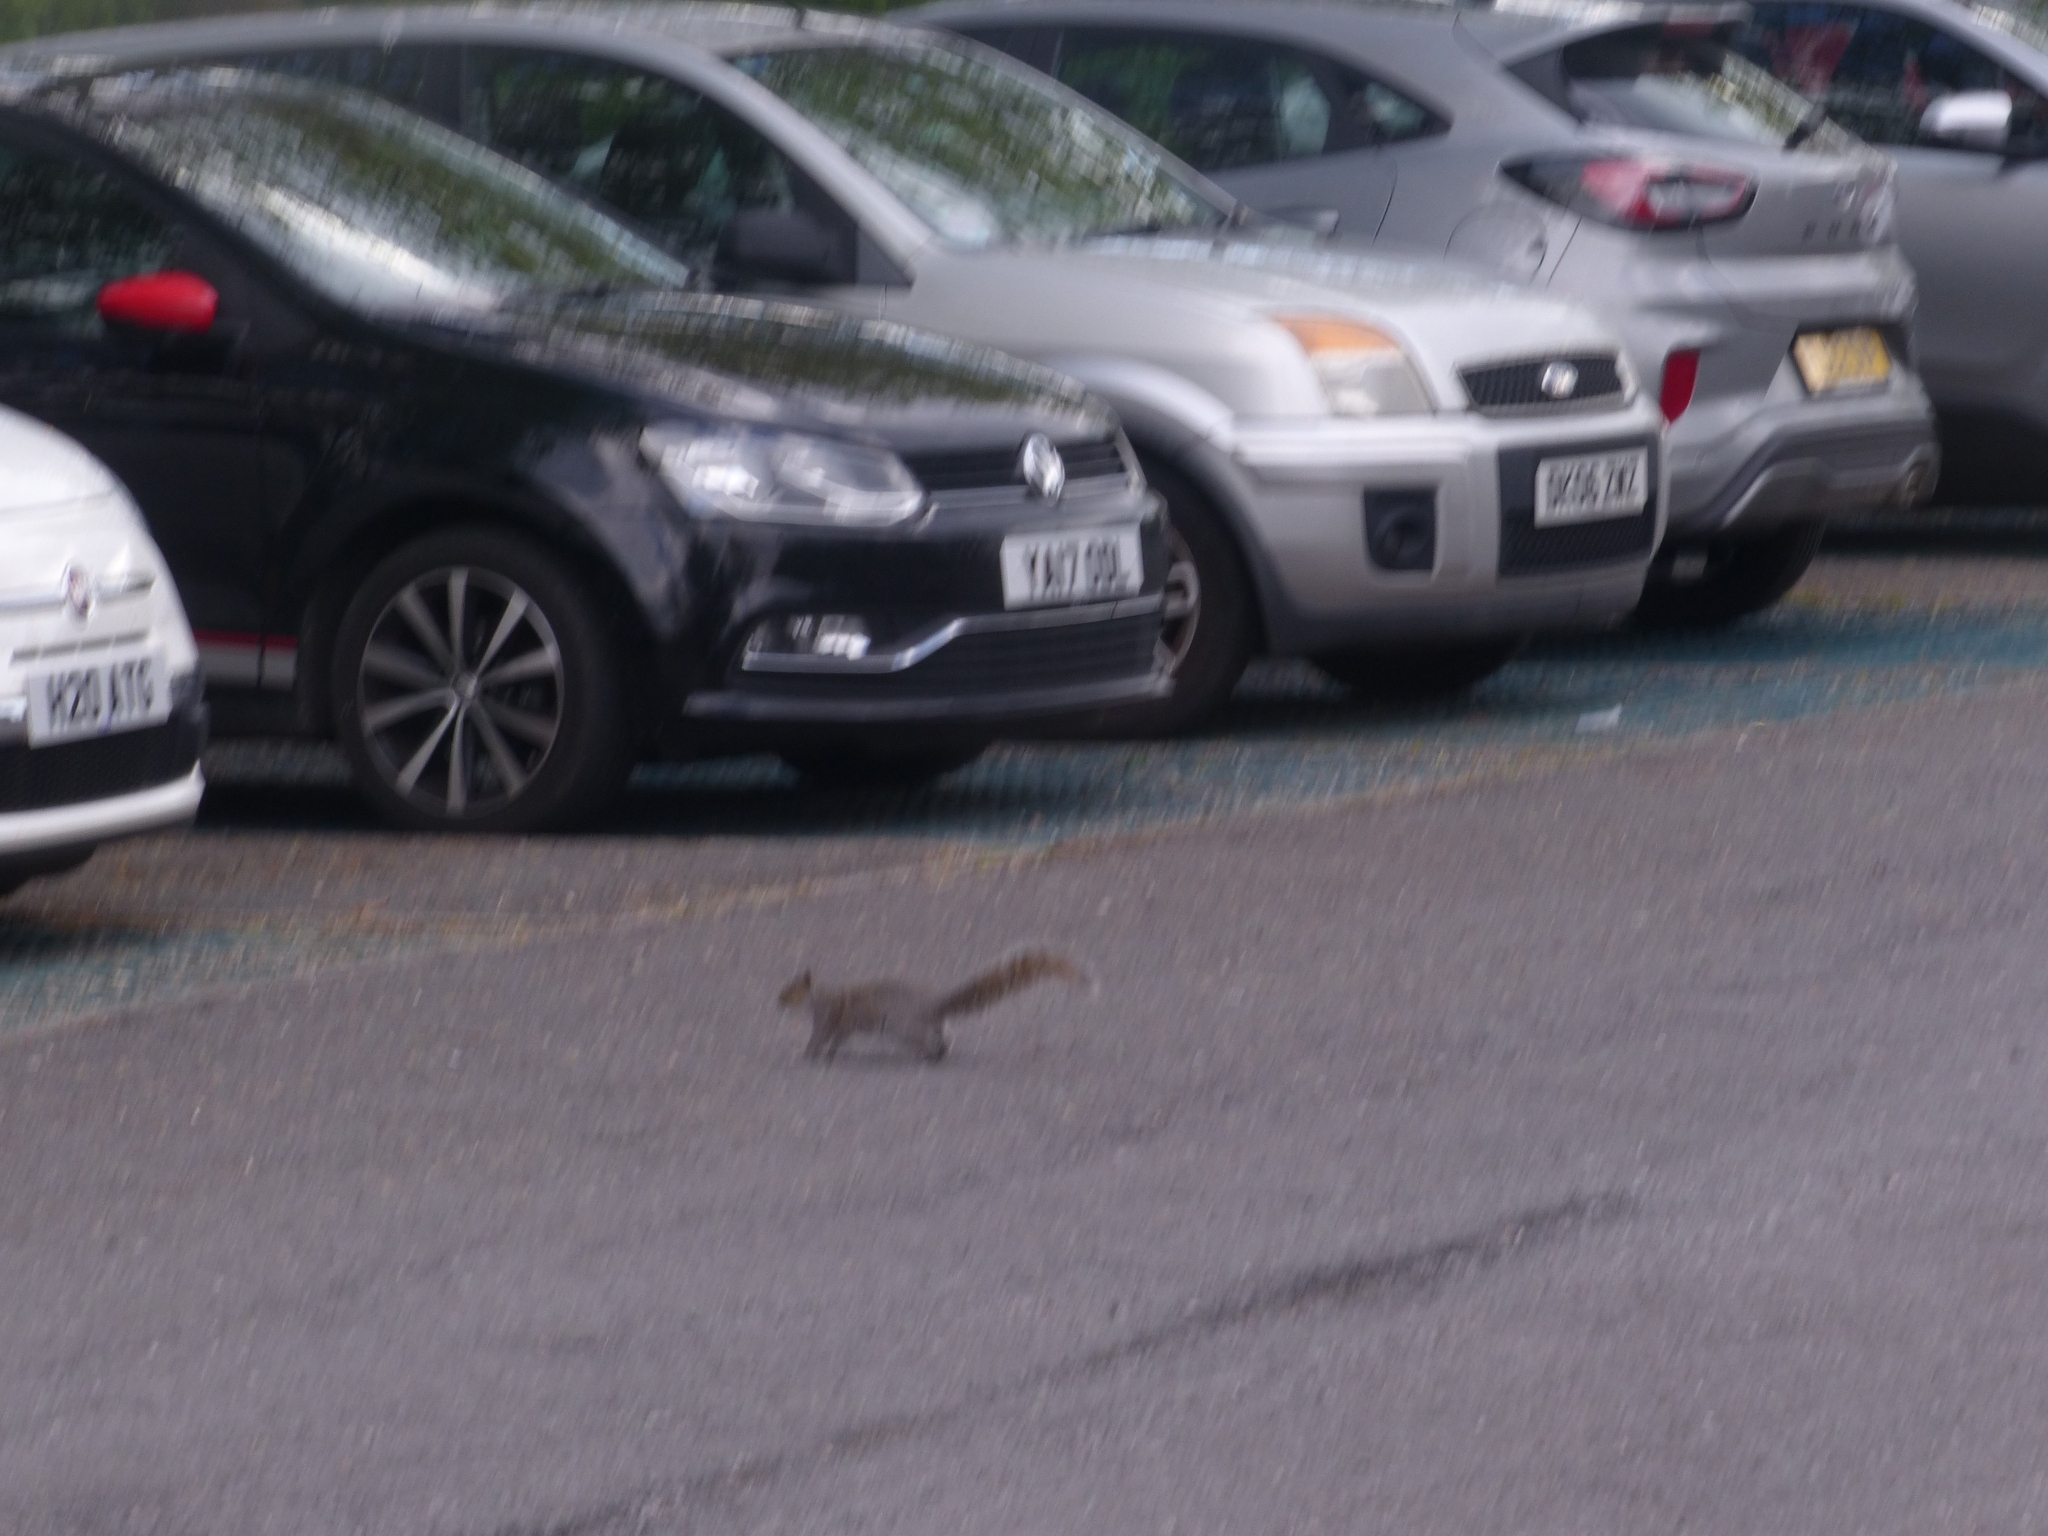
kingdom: Animalia
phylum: Chordata
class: Mammalia
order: Rodentia
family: Sciuridae
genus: Sciurus
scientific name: Sciurus carolinensis
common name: Eastern gray squirrel
